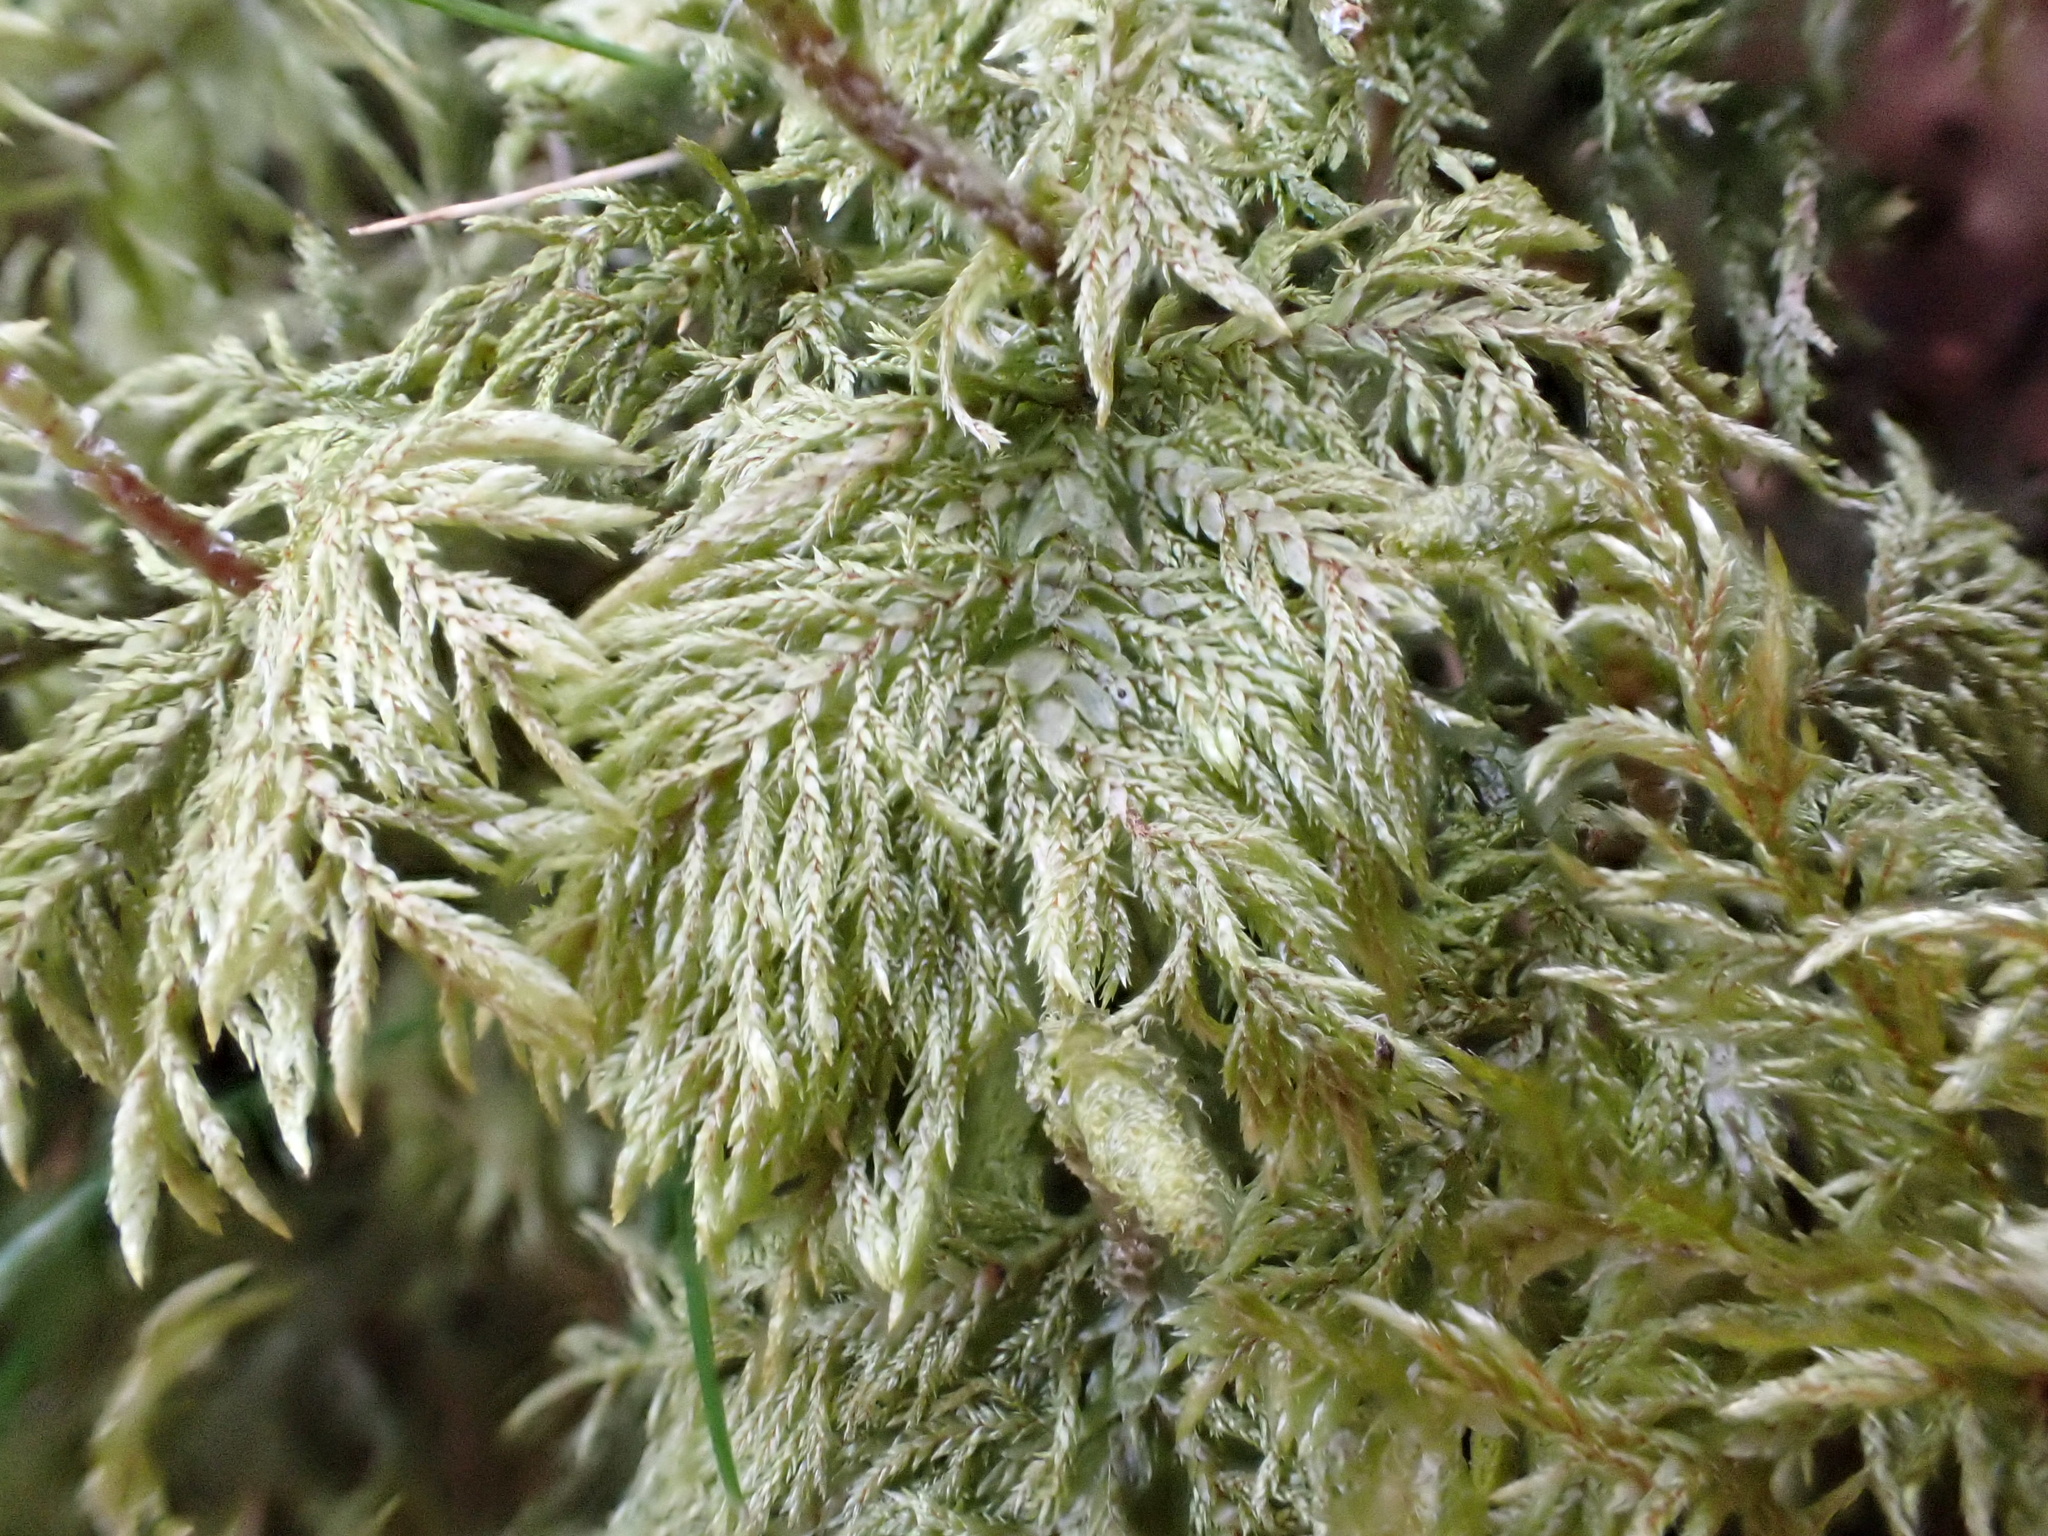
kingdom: Plantae
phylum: Bryophyta
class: Bryopsida
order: Hypnales
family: Hylocomiaceae
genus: Hylocomium
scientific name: Hylocomium splendens
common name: Stairstep moss
